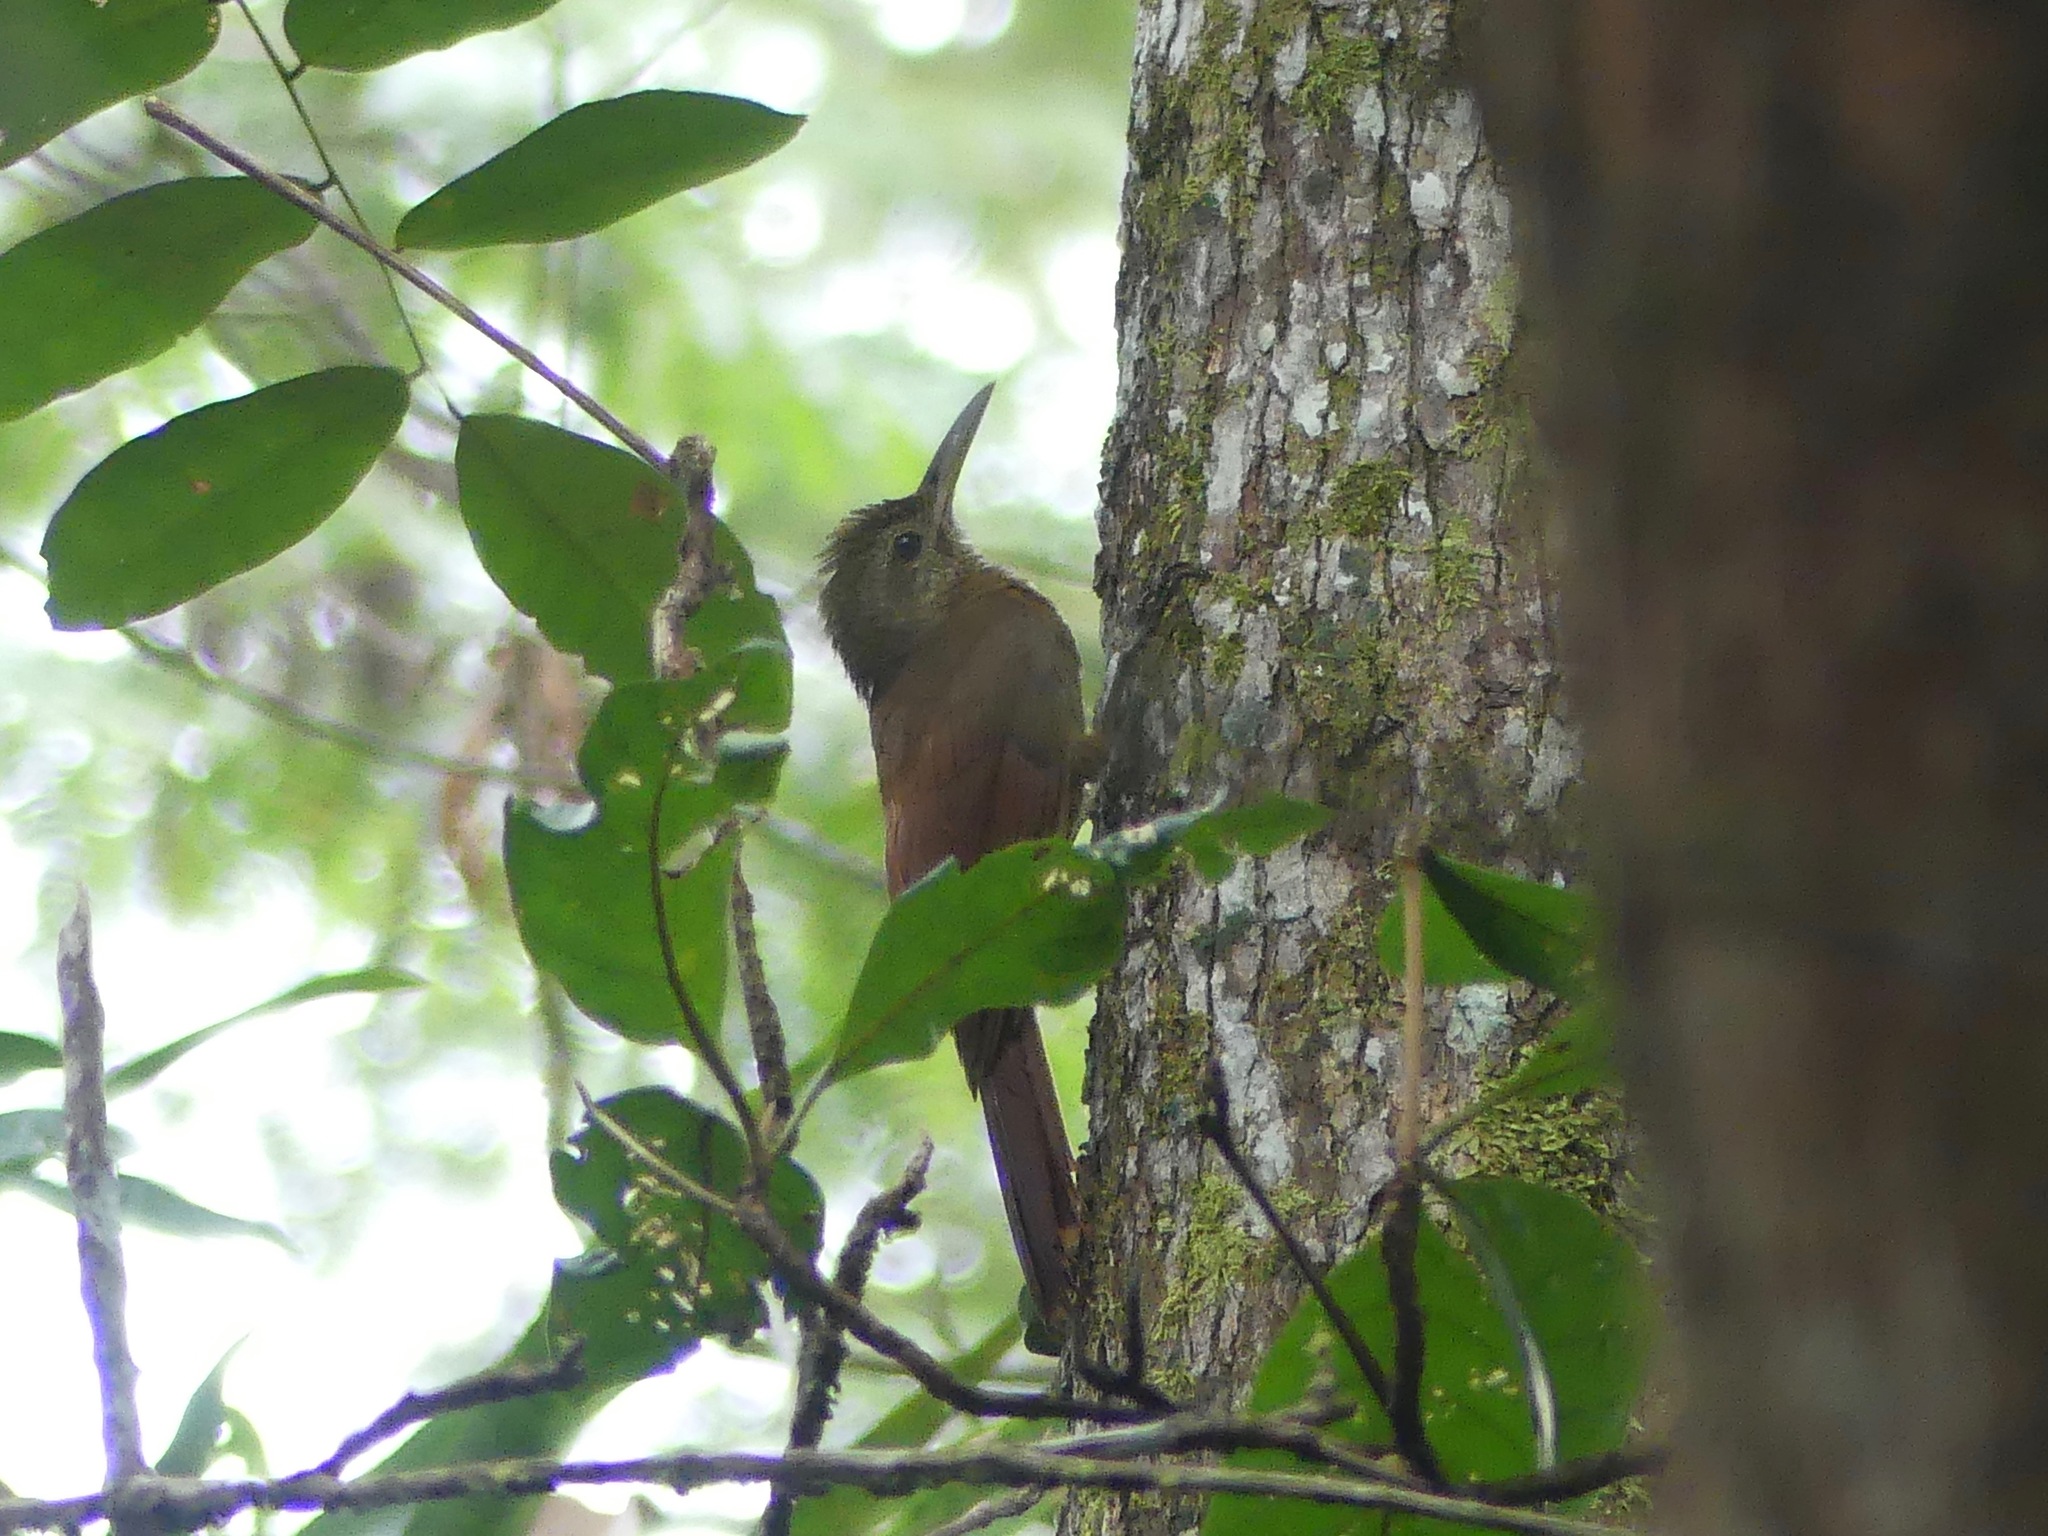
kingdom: Animalia
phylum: Chordata
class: Aves
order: Passeriformes
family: Furnariidae
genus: Dendrocolaptes
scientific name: Dendrocolaptes certhia
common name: Amazonian barred woodcreeper
